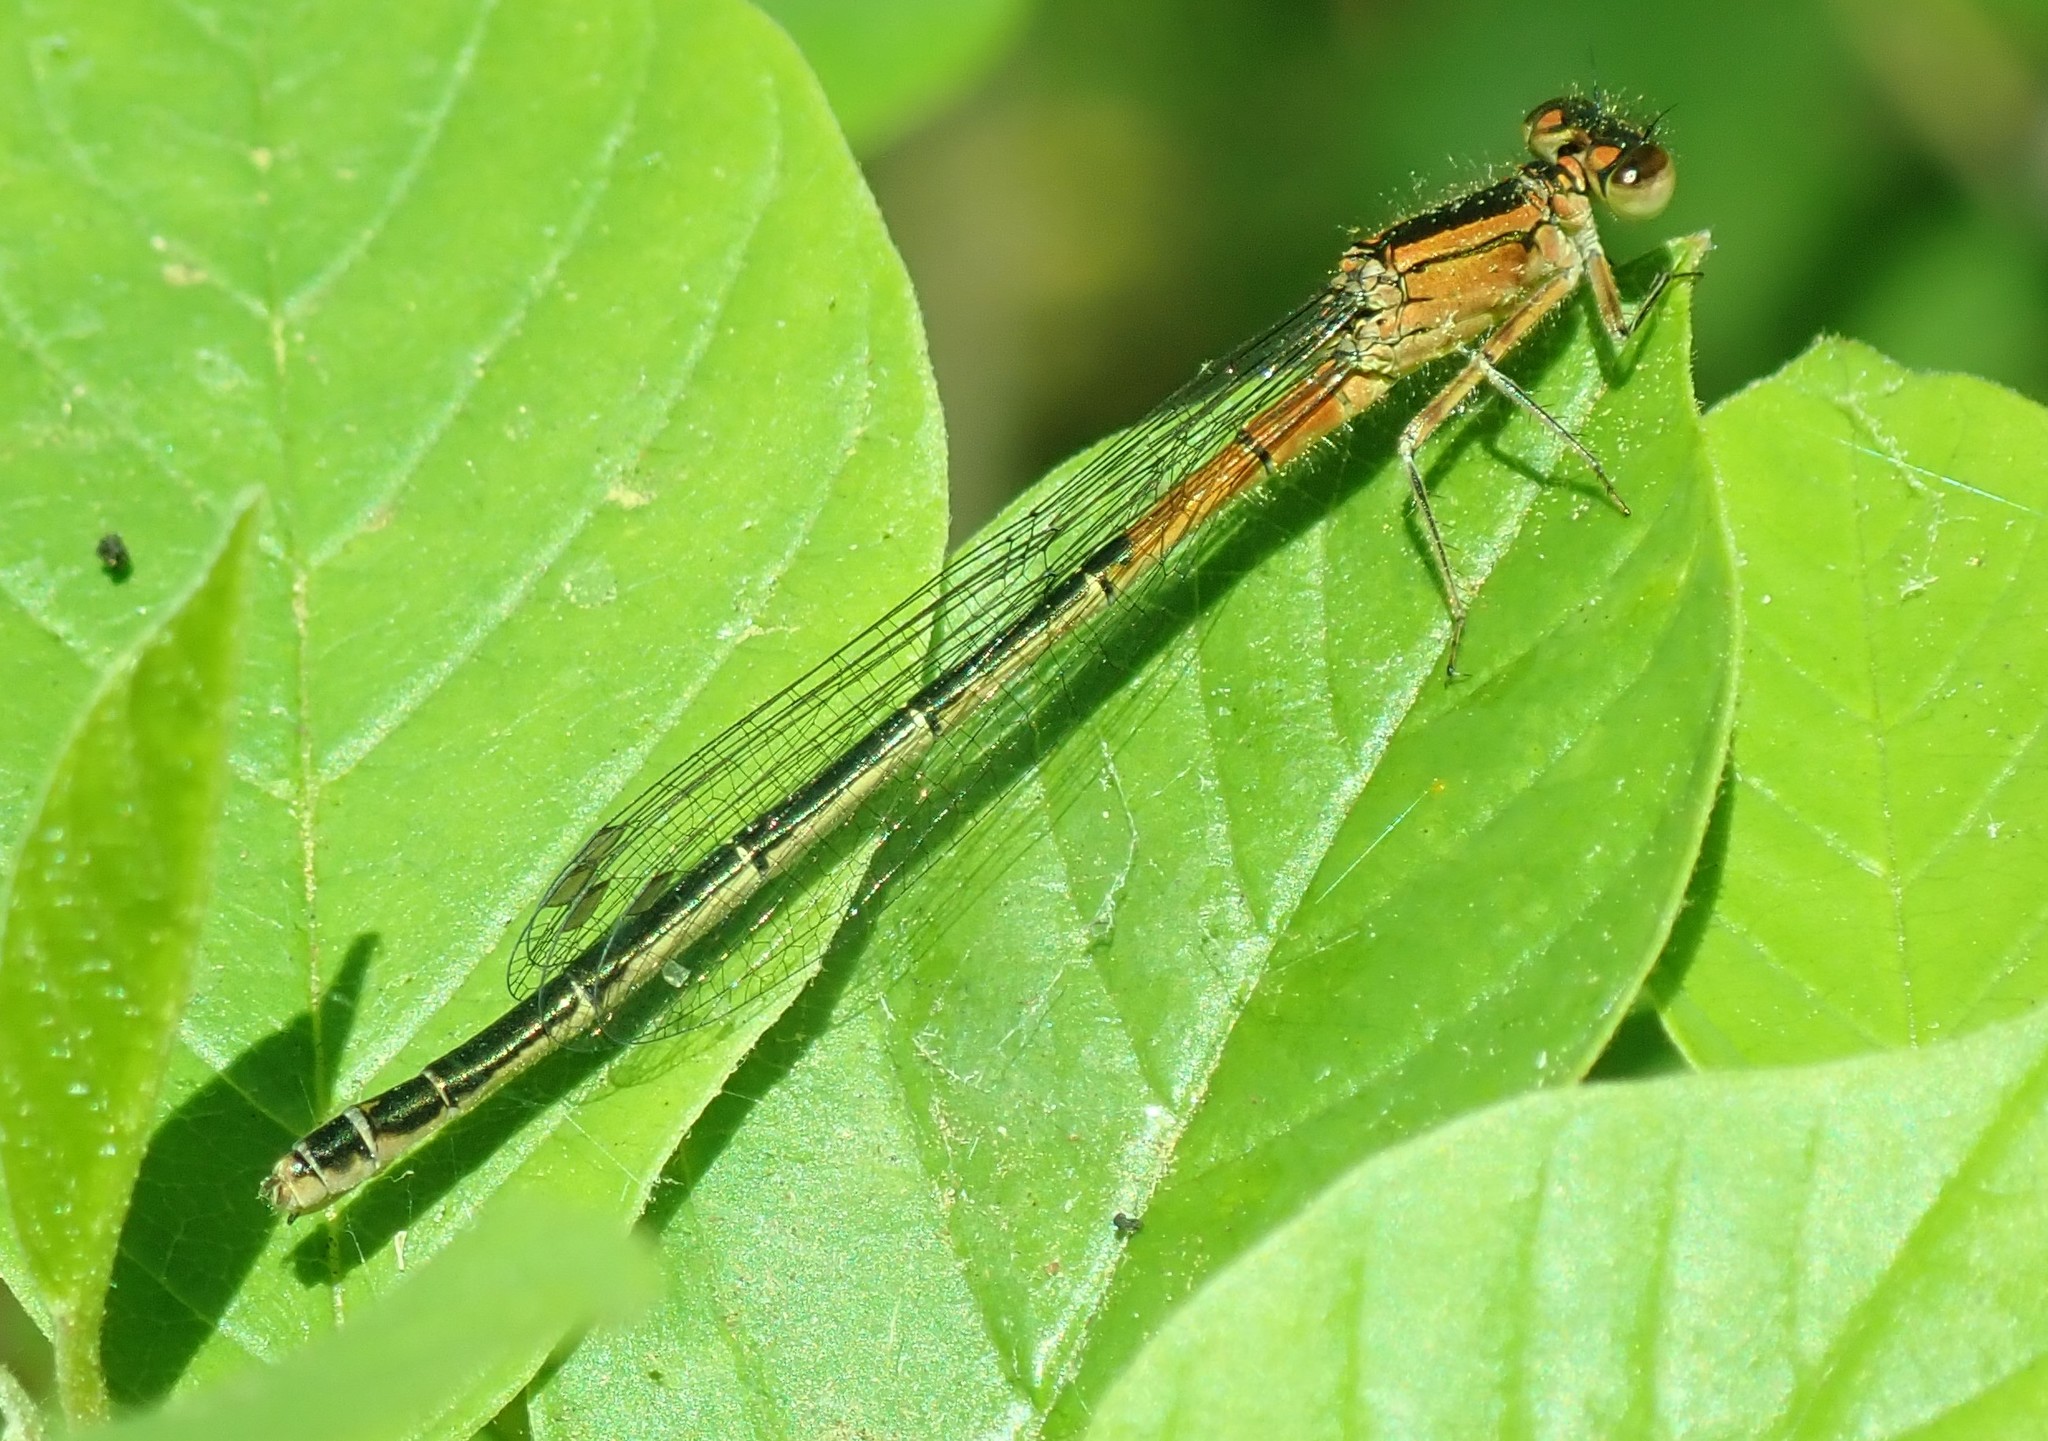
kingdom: Animalia
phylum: Arthropoda
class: Insecta
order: Odonata
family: Coenagrionidae
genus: Ischnura
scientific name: Ischnura verticalis
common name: Eastern forktail
